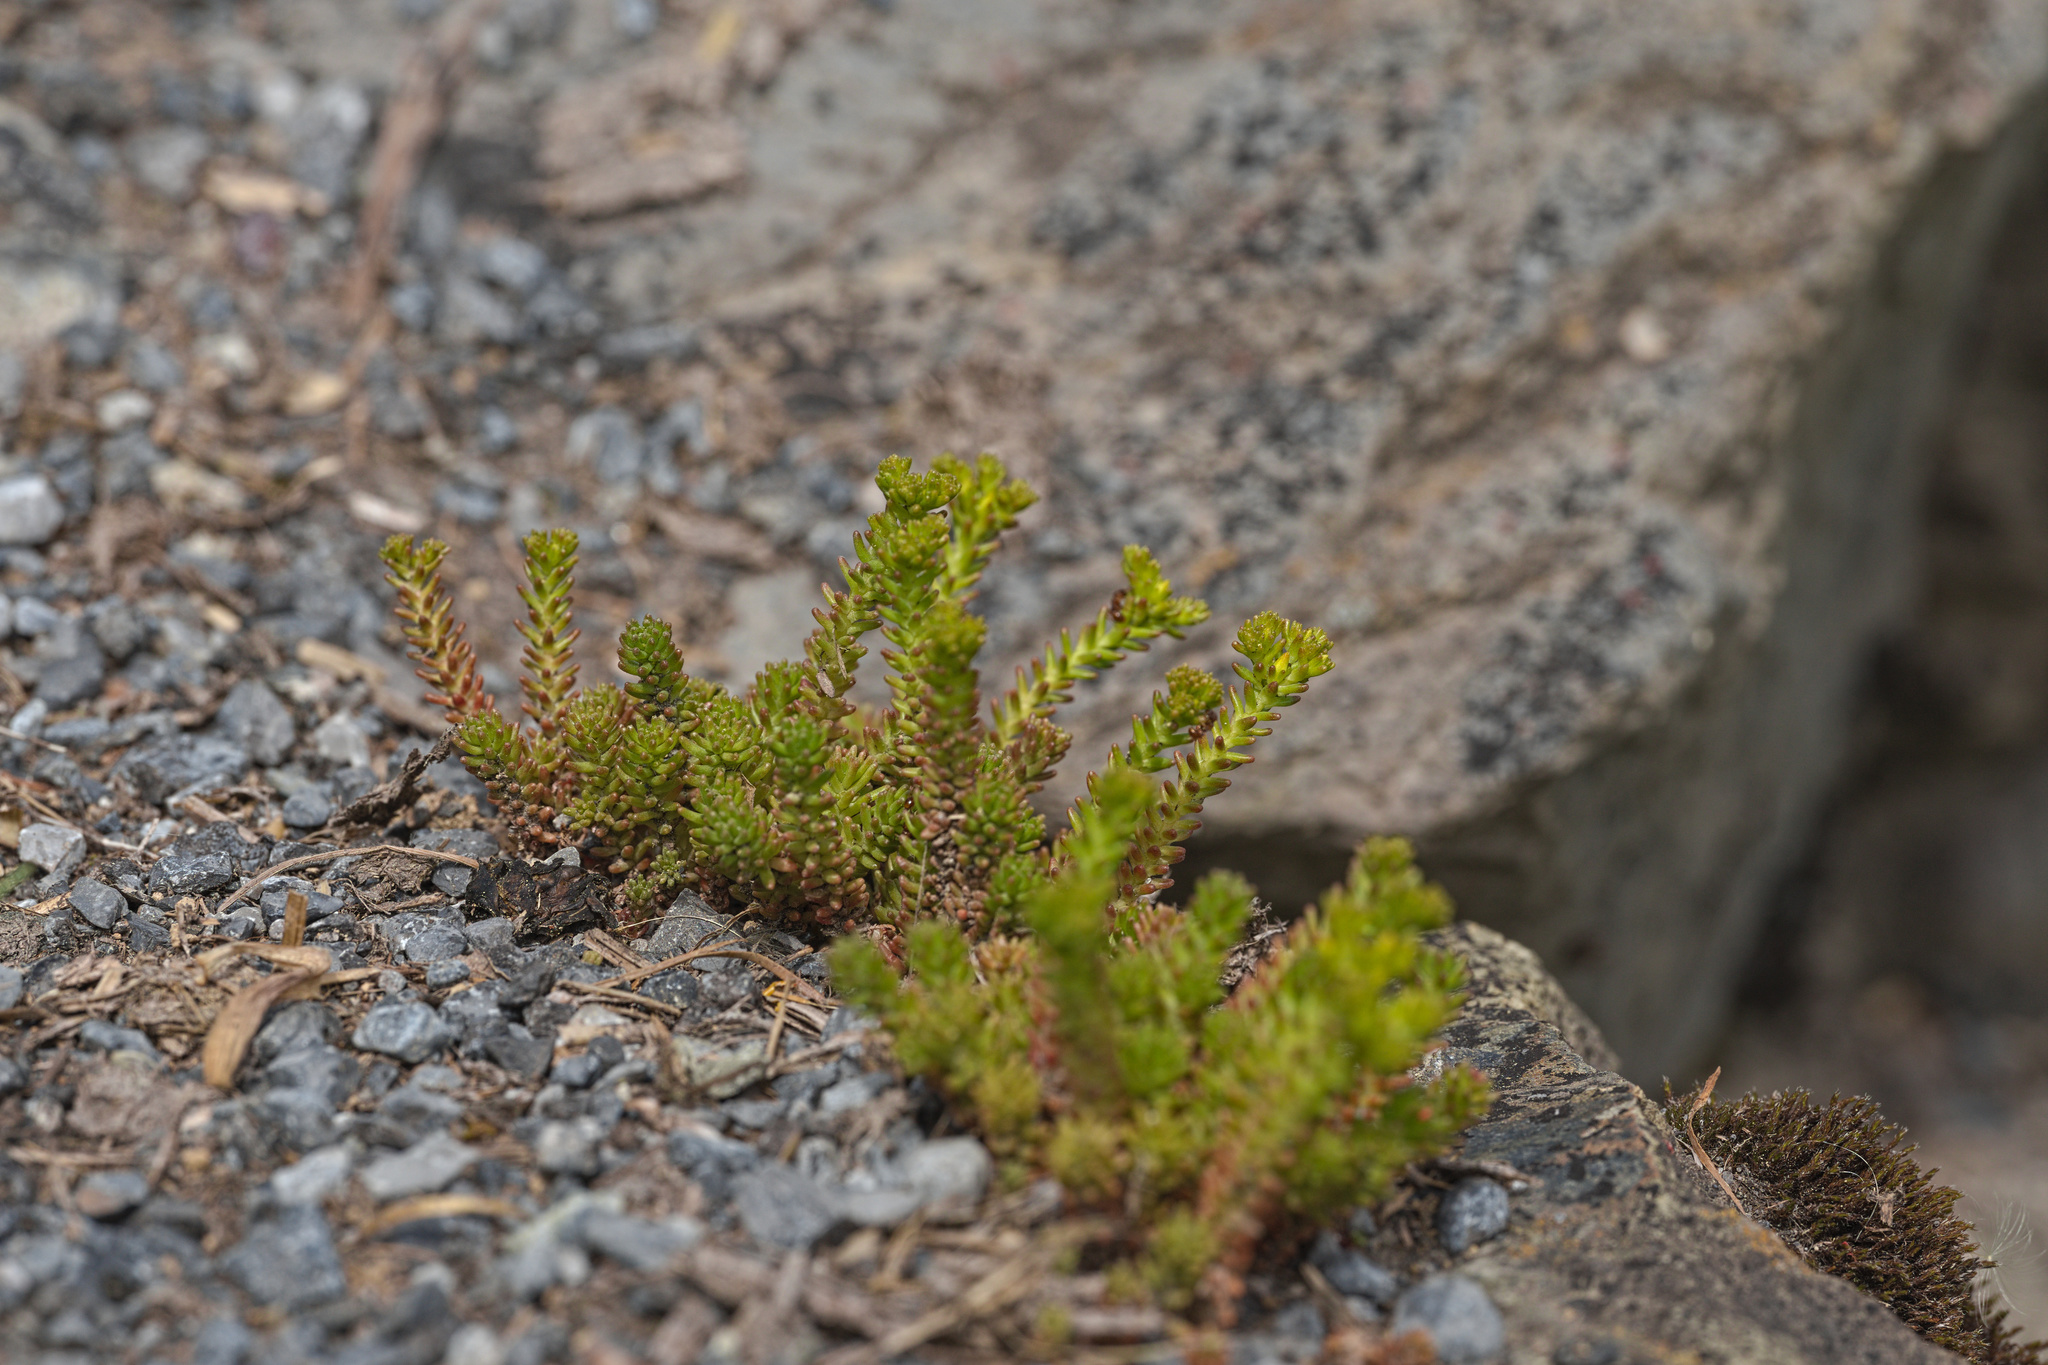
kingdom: Plantae
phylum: Tracheophyta
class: Magnoliopsida
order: Saxifragales
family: Crassulaceae
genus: Sedum
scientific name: Sedum sexangulare
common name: Tasteless stonecrop
